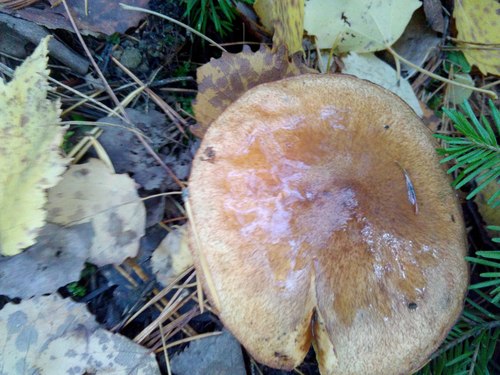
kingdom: Fungi
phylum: Basidiomycota
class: Agaricomycetes
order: Boletales
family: Suillaceae
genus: Suillus
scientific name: Suillus luteus
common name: Slippery jack
